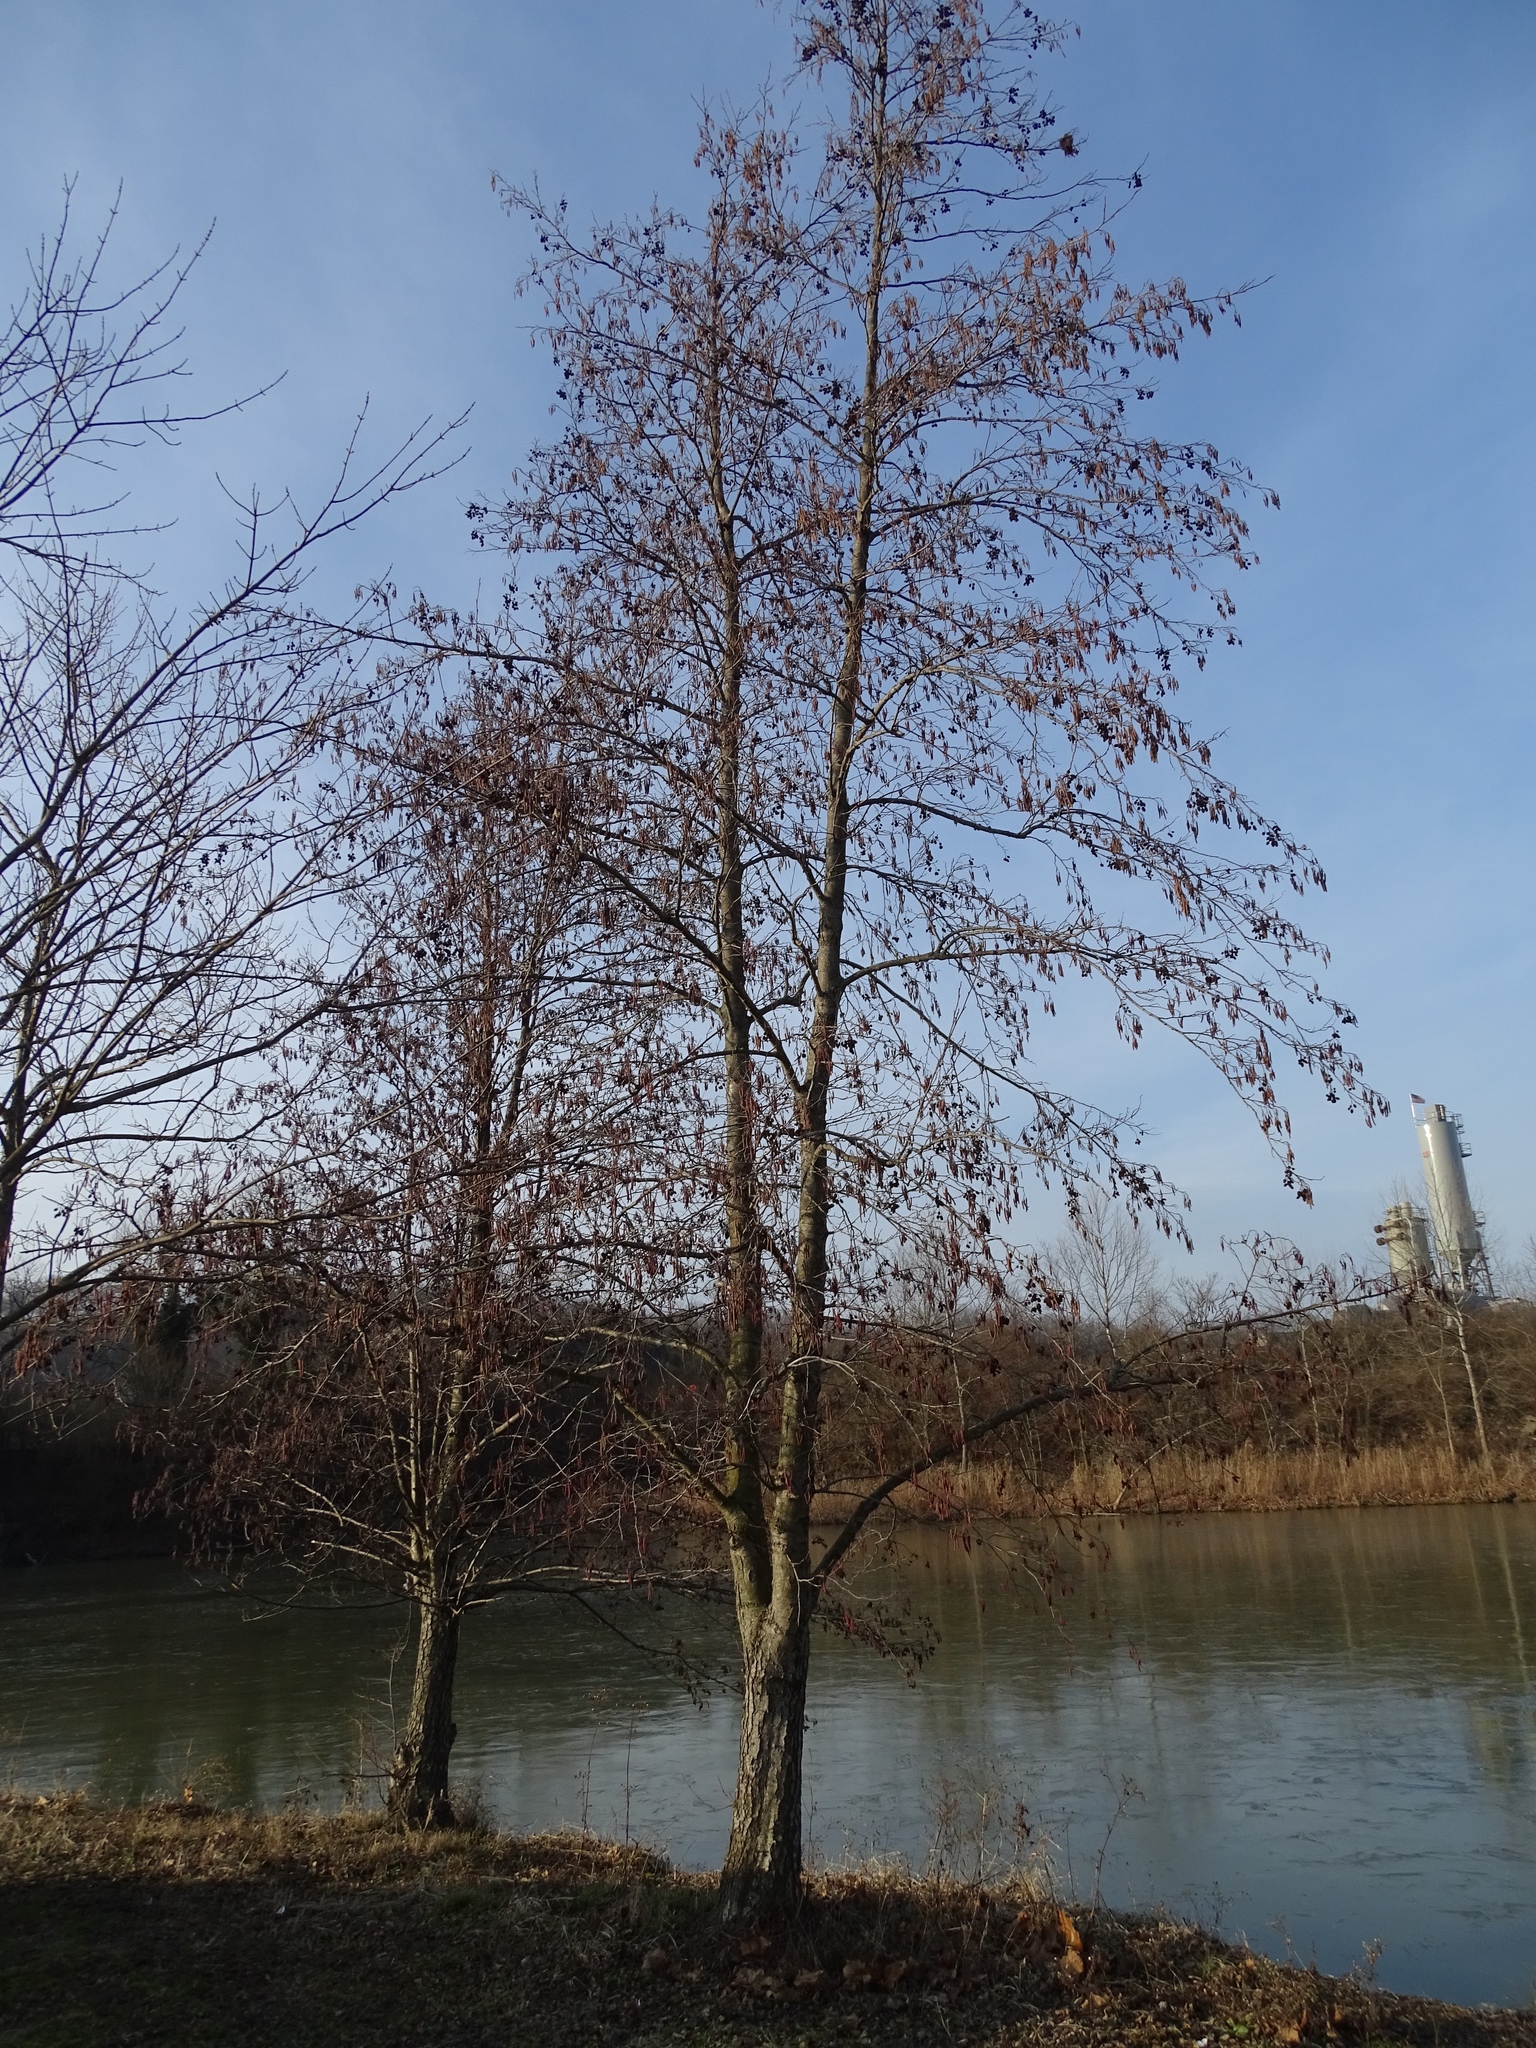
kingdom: Plantae
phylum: Tracheophyta
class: Magnoliopsida
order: Fagales
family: Betulaceae
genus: Alnus
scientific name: Alnus glutinosa
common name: Black alder
